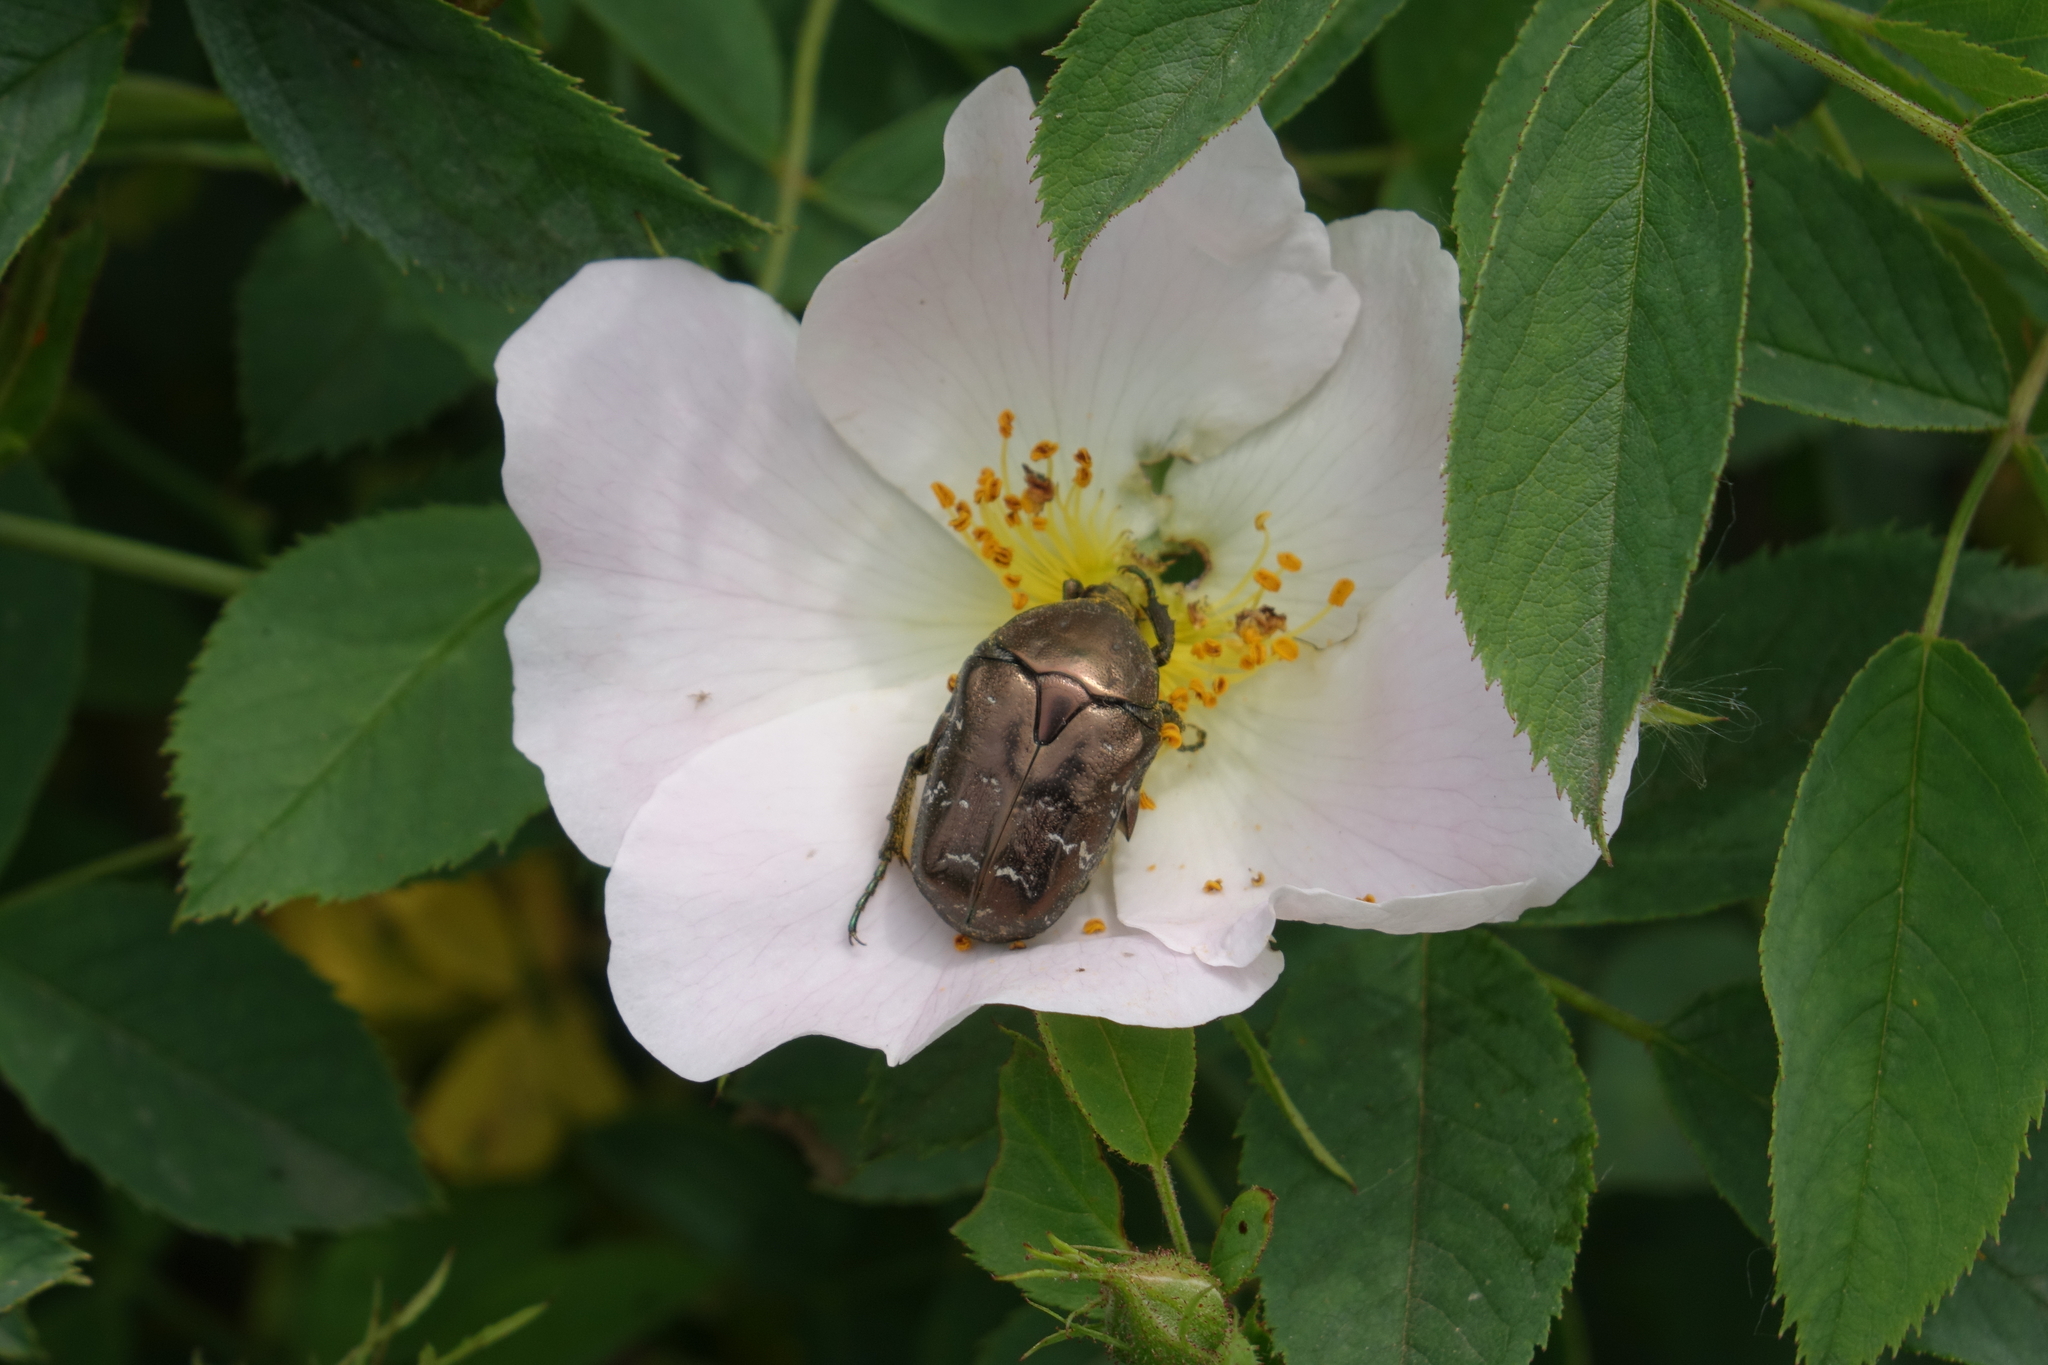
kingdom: Animalia
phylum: Arthropoda
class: Insecta
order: Coleoptera
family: Scarabaeidae
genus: Protaetia
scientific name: Protaetia cuprea
